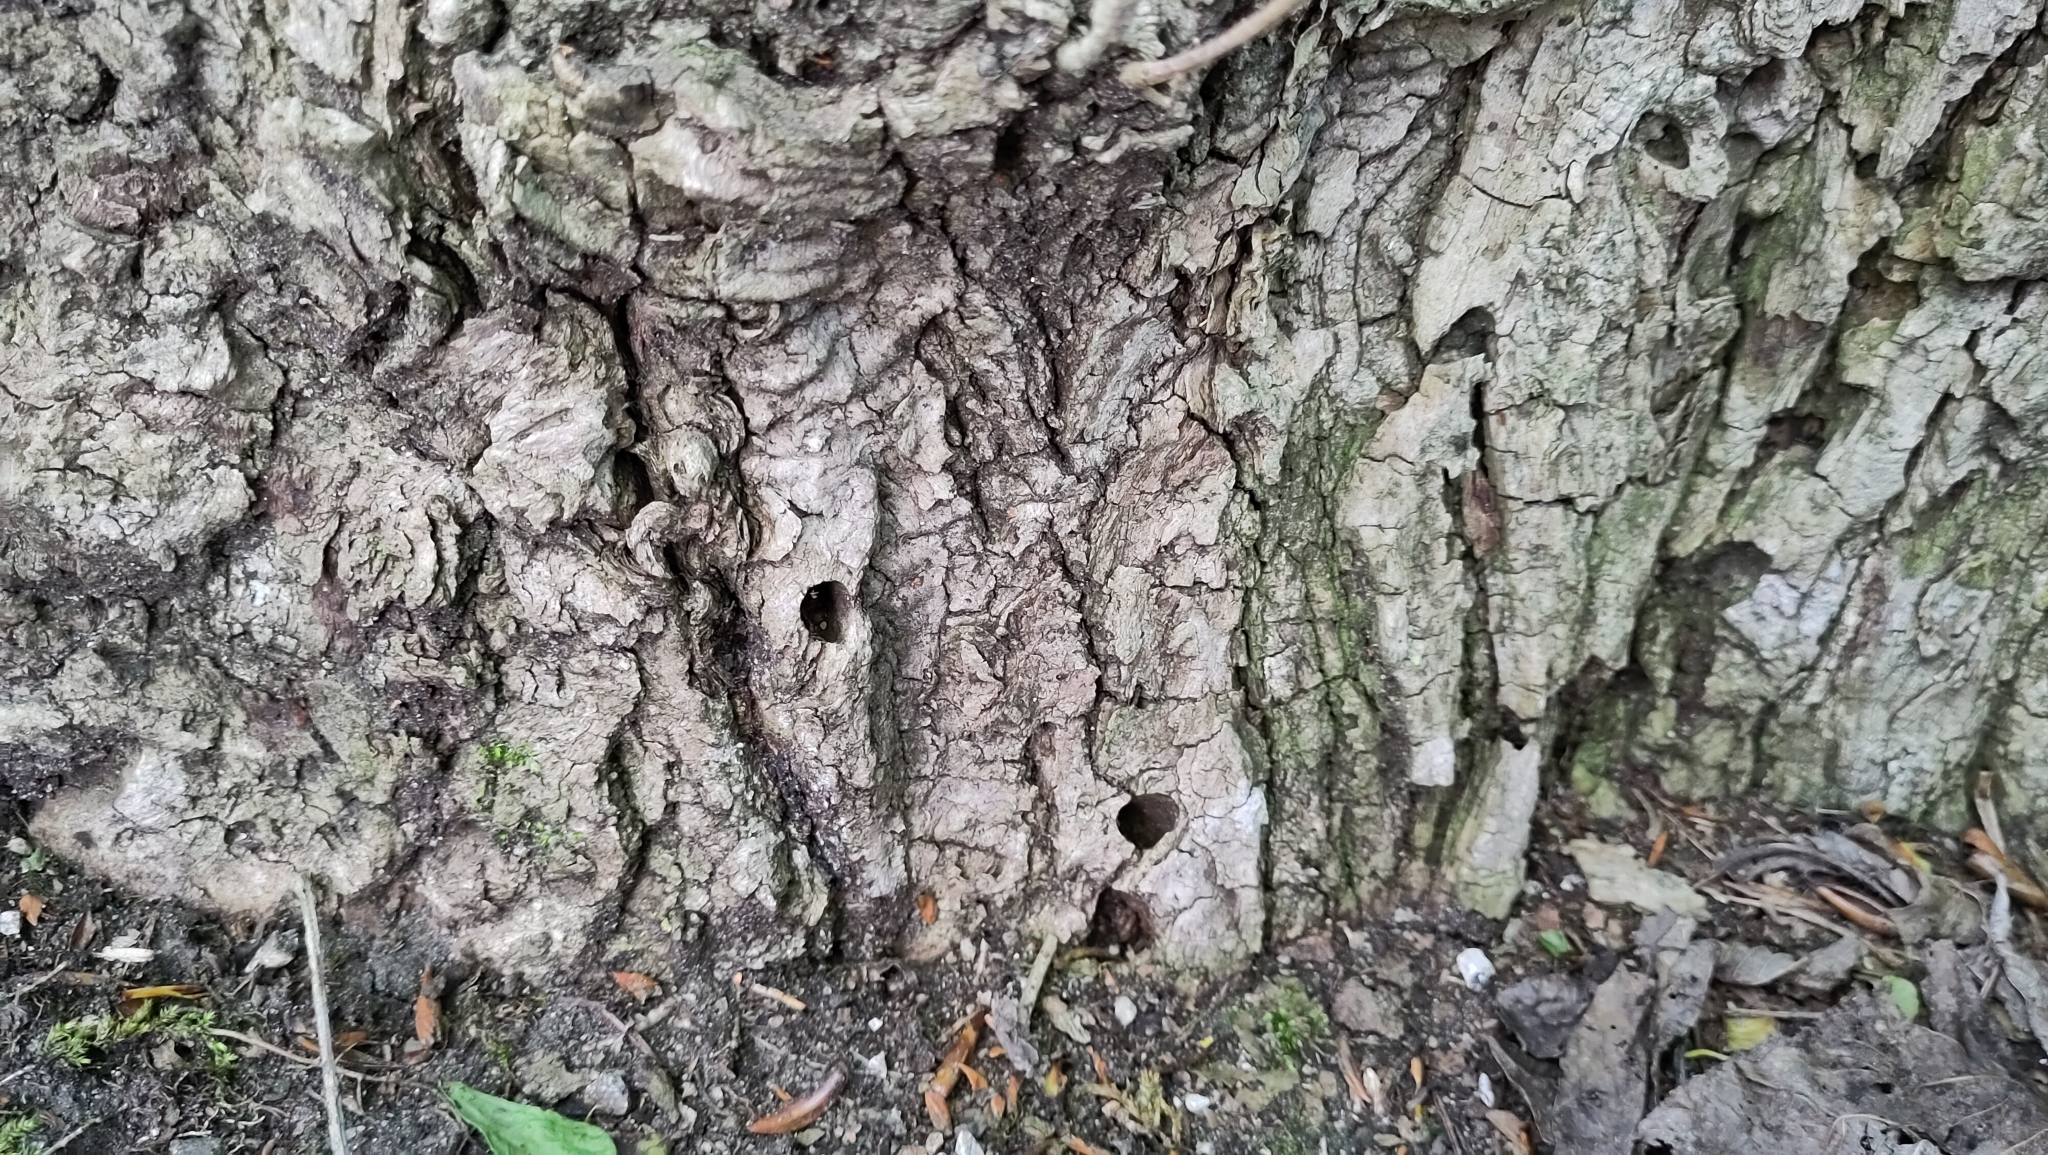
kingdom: Animalia
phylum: Arthropoda
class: Insecta
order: Lepidoptera
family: Sesiidae
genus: Sesia
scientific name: Sesia apiformis
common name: Hornet moth
